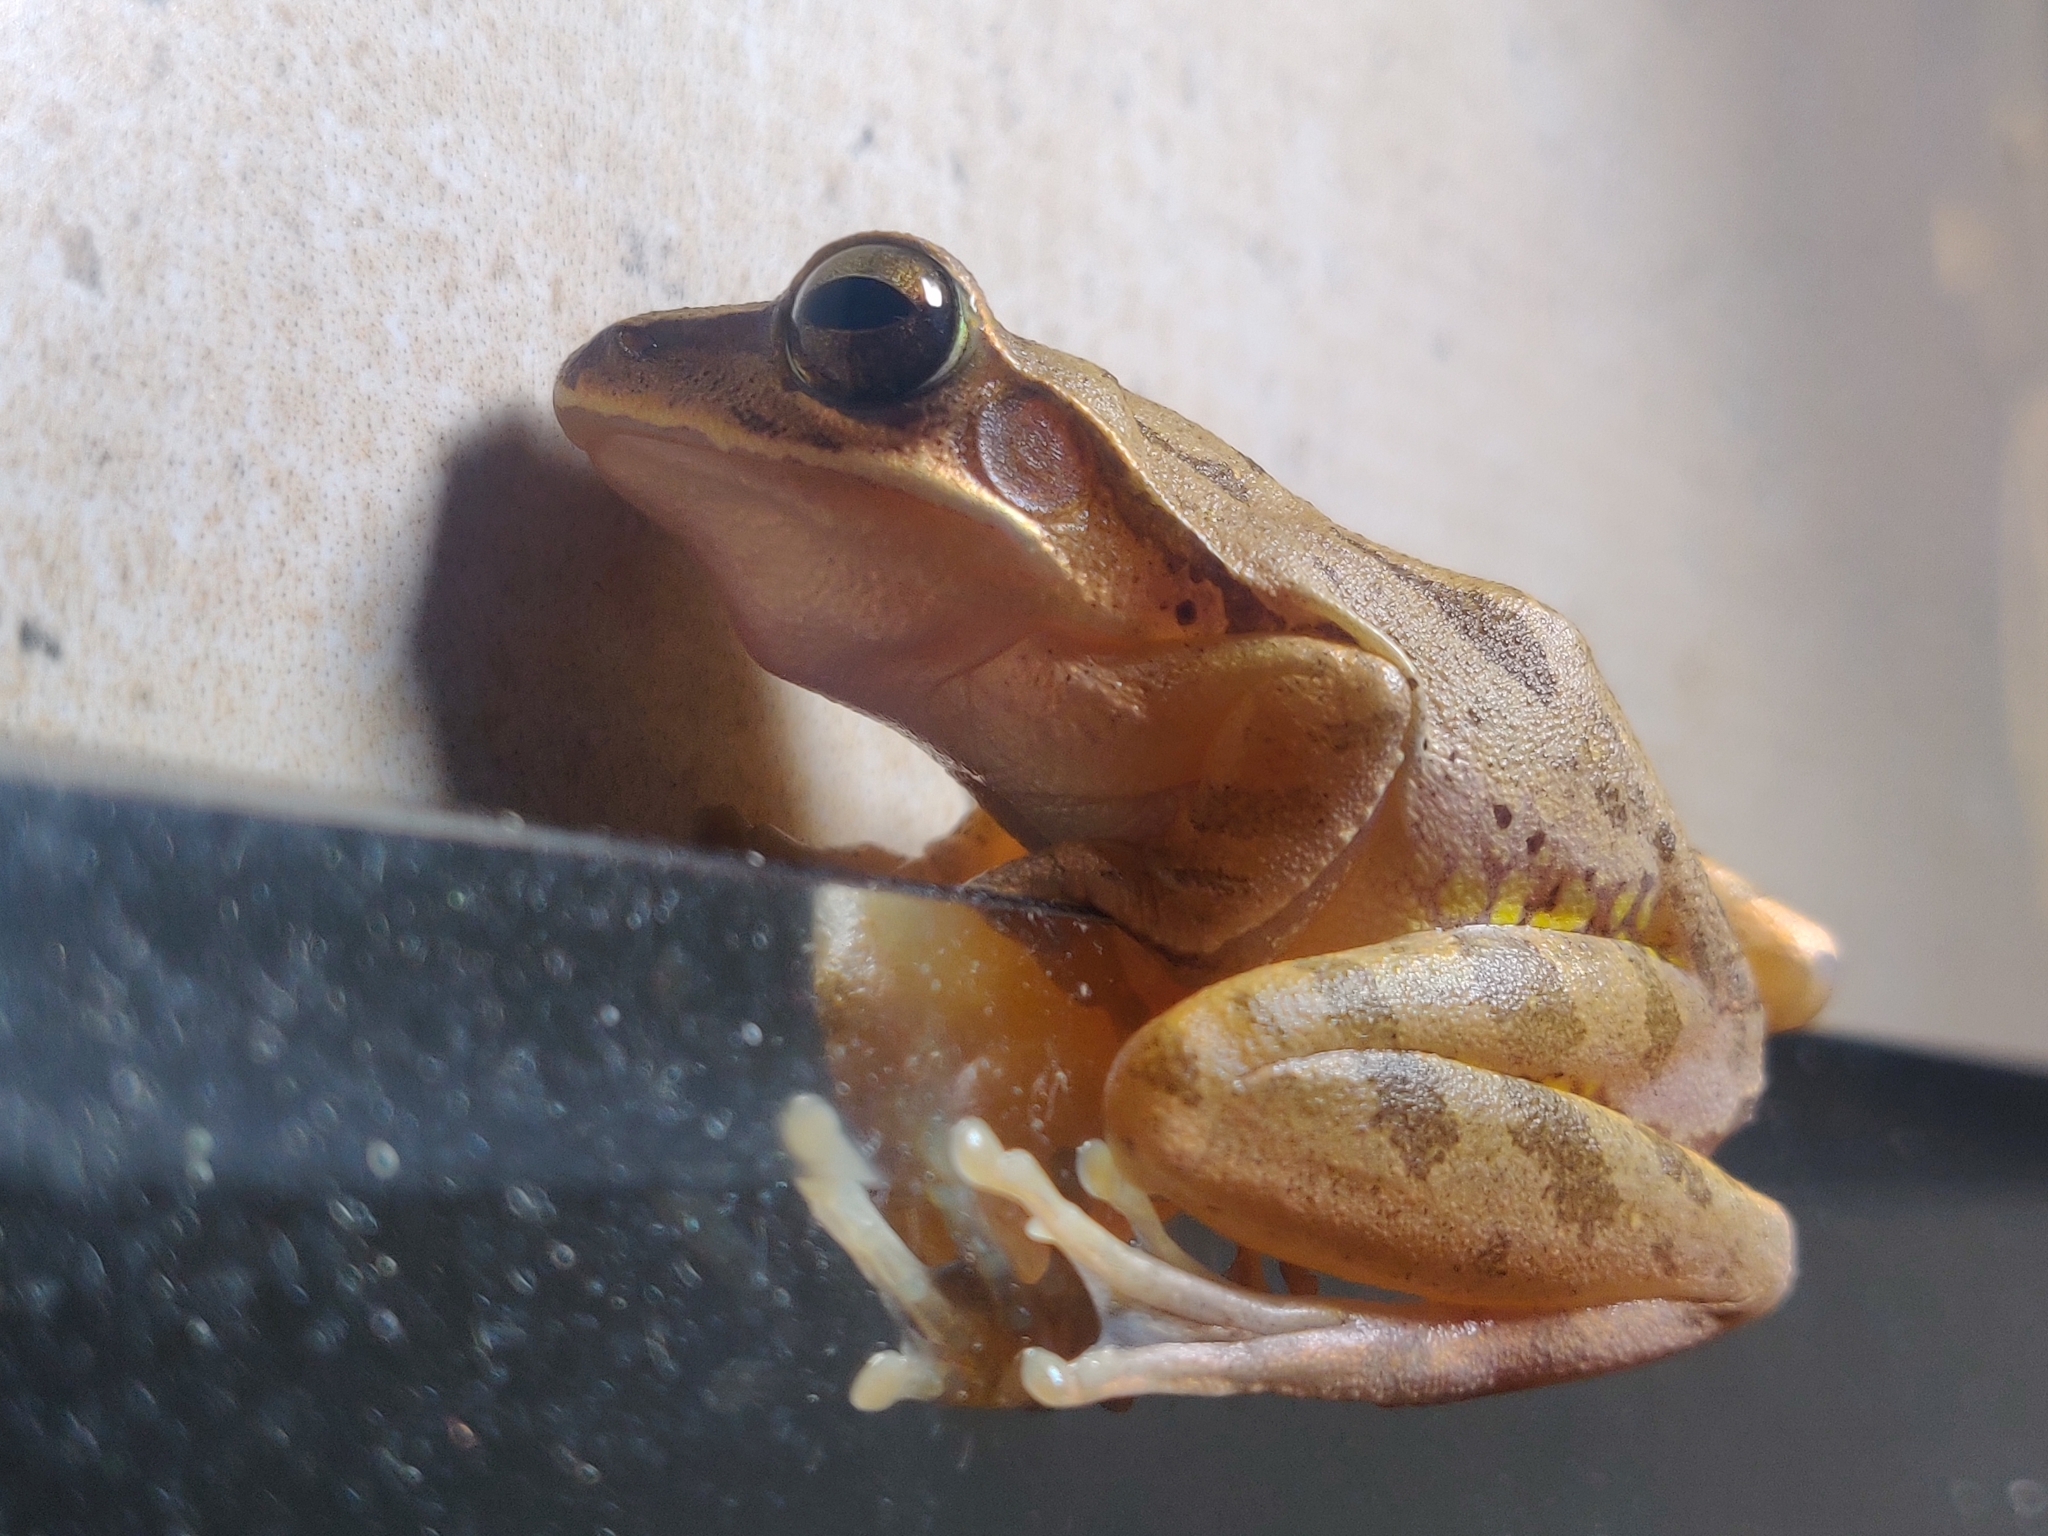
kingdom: Animalia
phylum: Chordata
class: Amphibia
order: Anura
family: Rhacophoridae
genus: Polypedates
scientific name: Polypedates maculatus
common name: Himalayan tree frog
